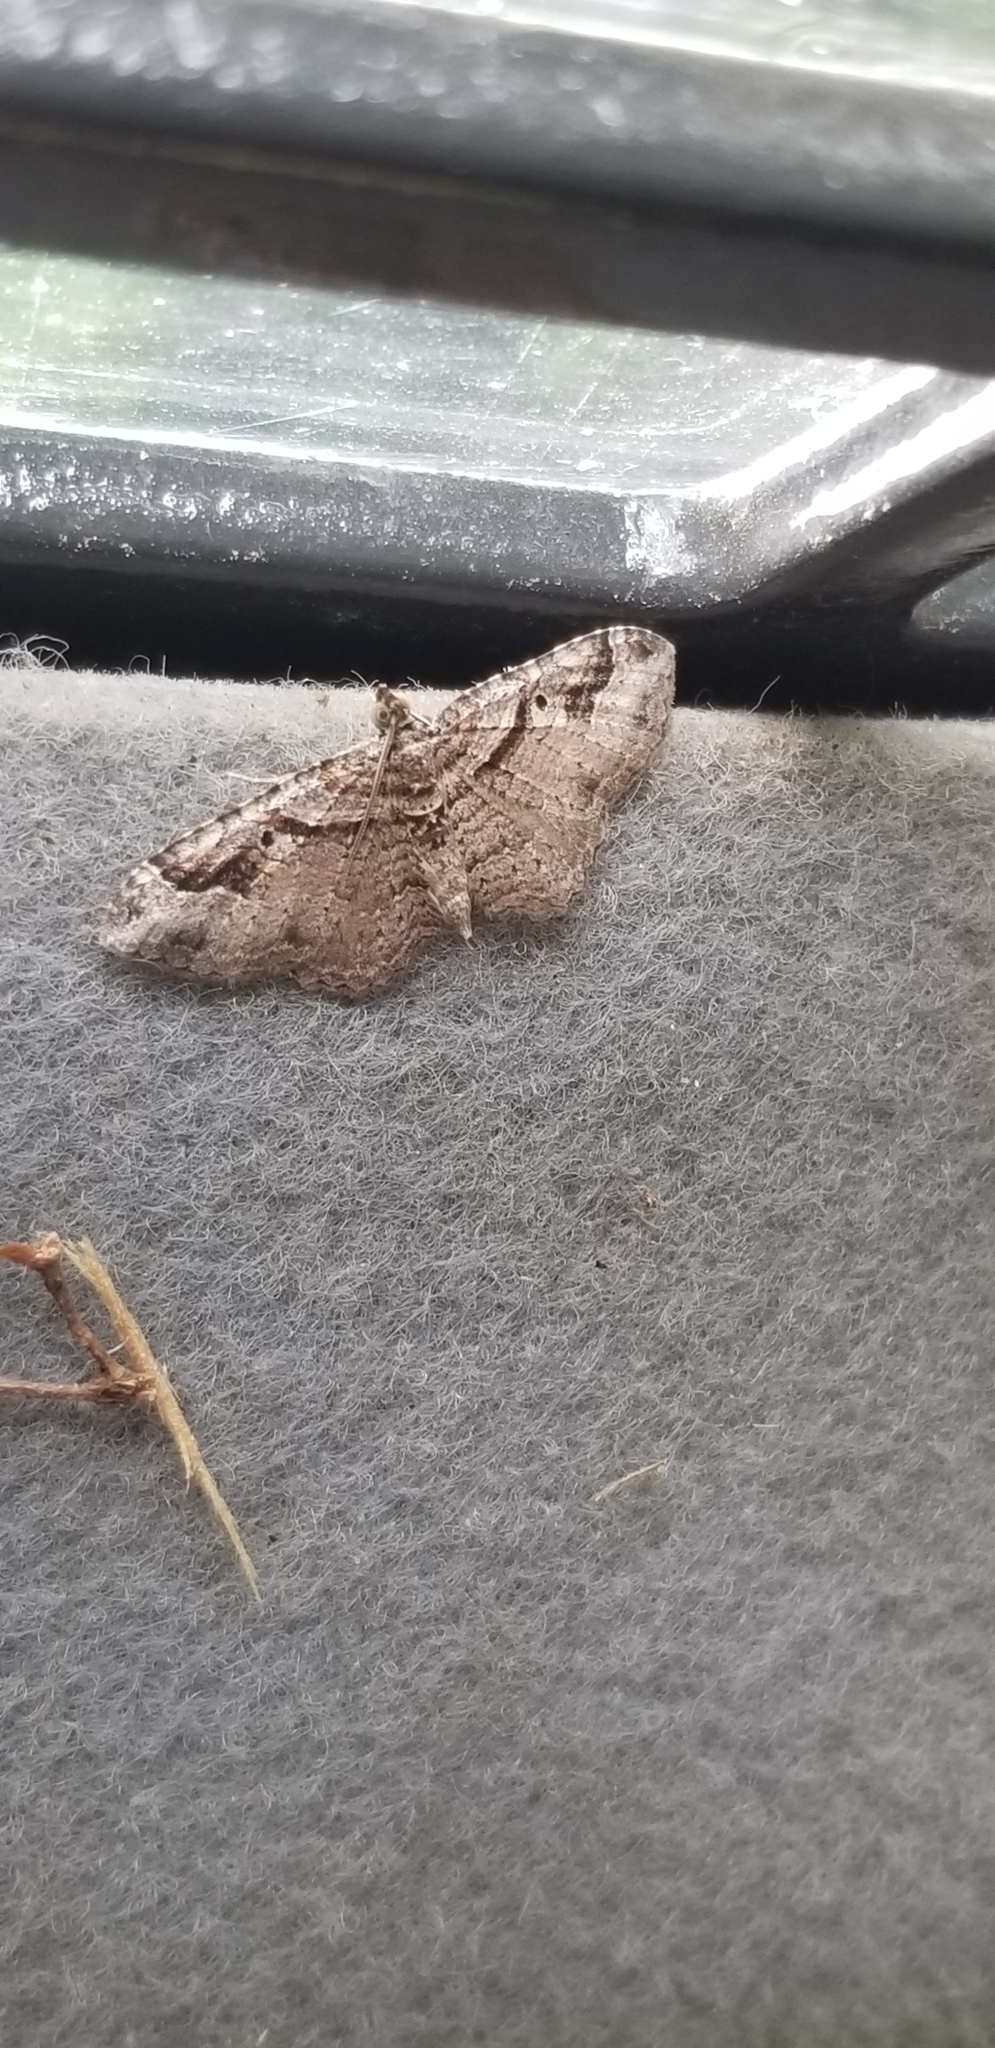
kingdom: Animalia
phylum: Arthropoda
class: Insecta
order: Lepidoptera
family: Geometridae
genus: Costaconvexa
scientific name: Costaconvexa centrostrigaria
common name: Bent-line carpet
